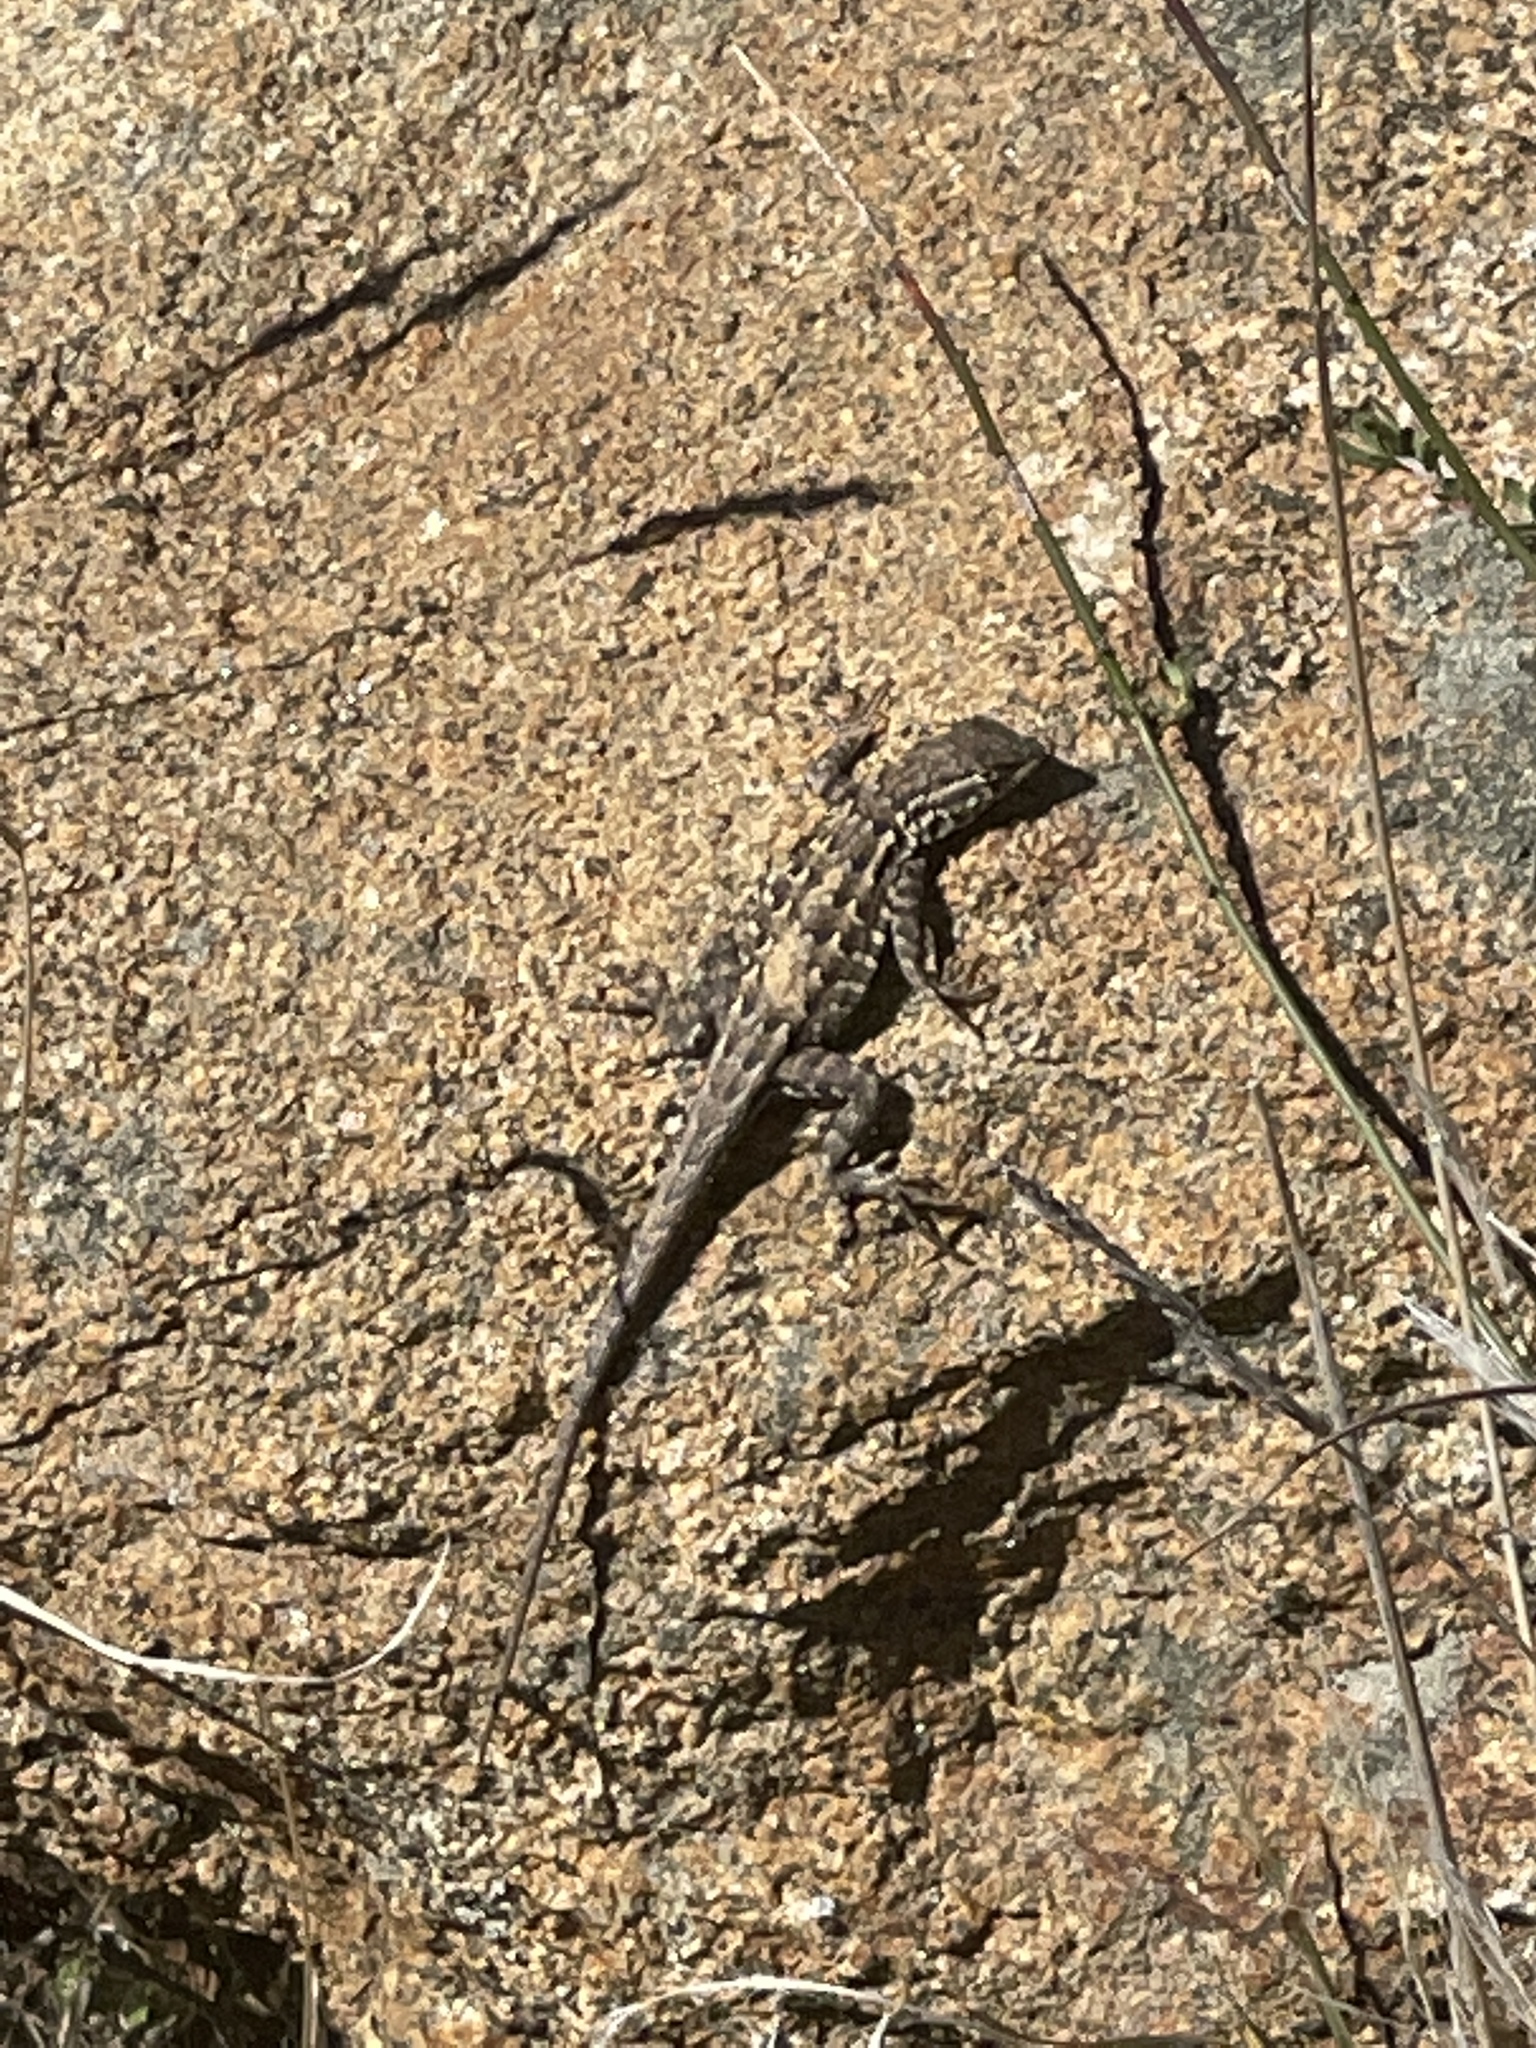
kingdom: Animalia
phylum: Chordata
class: Squamata
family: Phrynosomatidae
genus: Uta
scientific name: Uta stansburiana
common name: Side-blotched lizard
